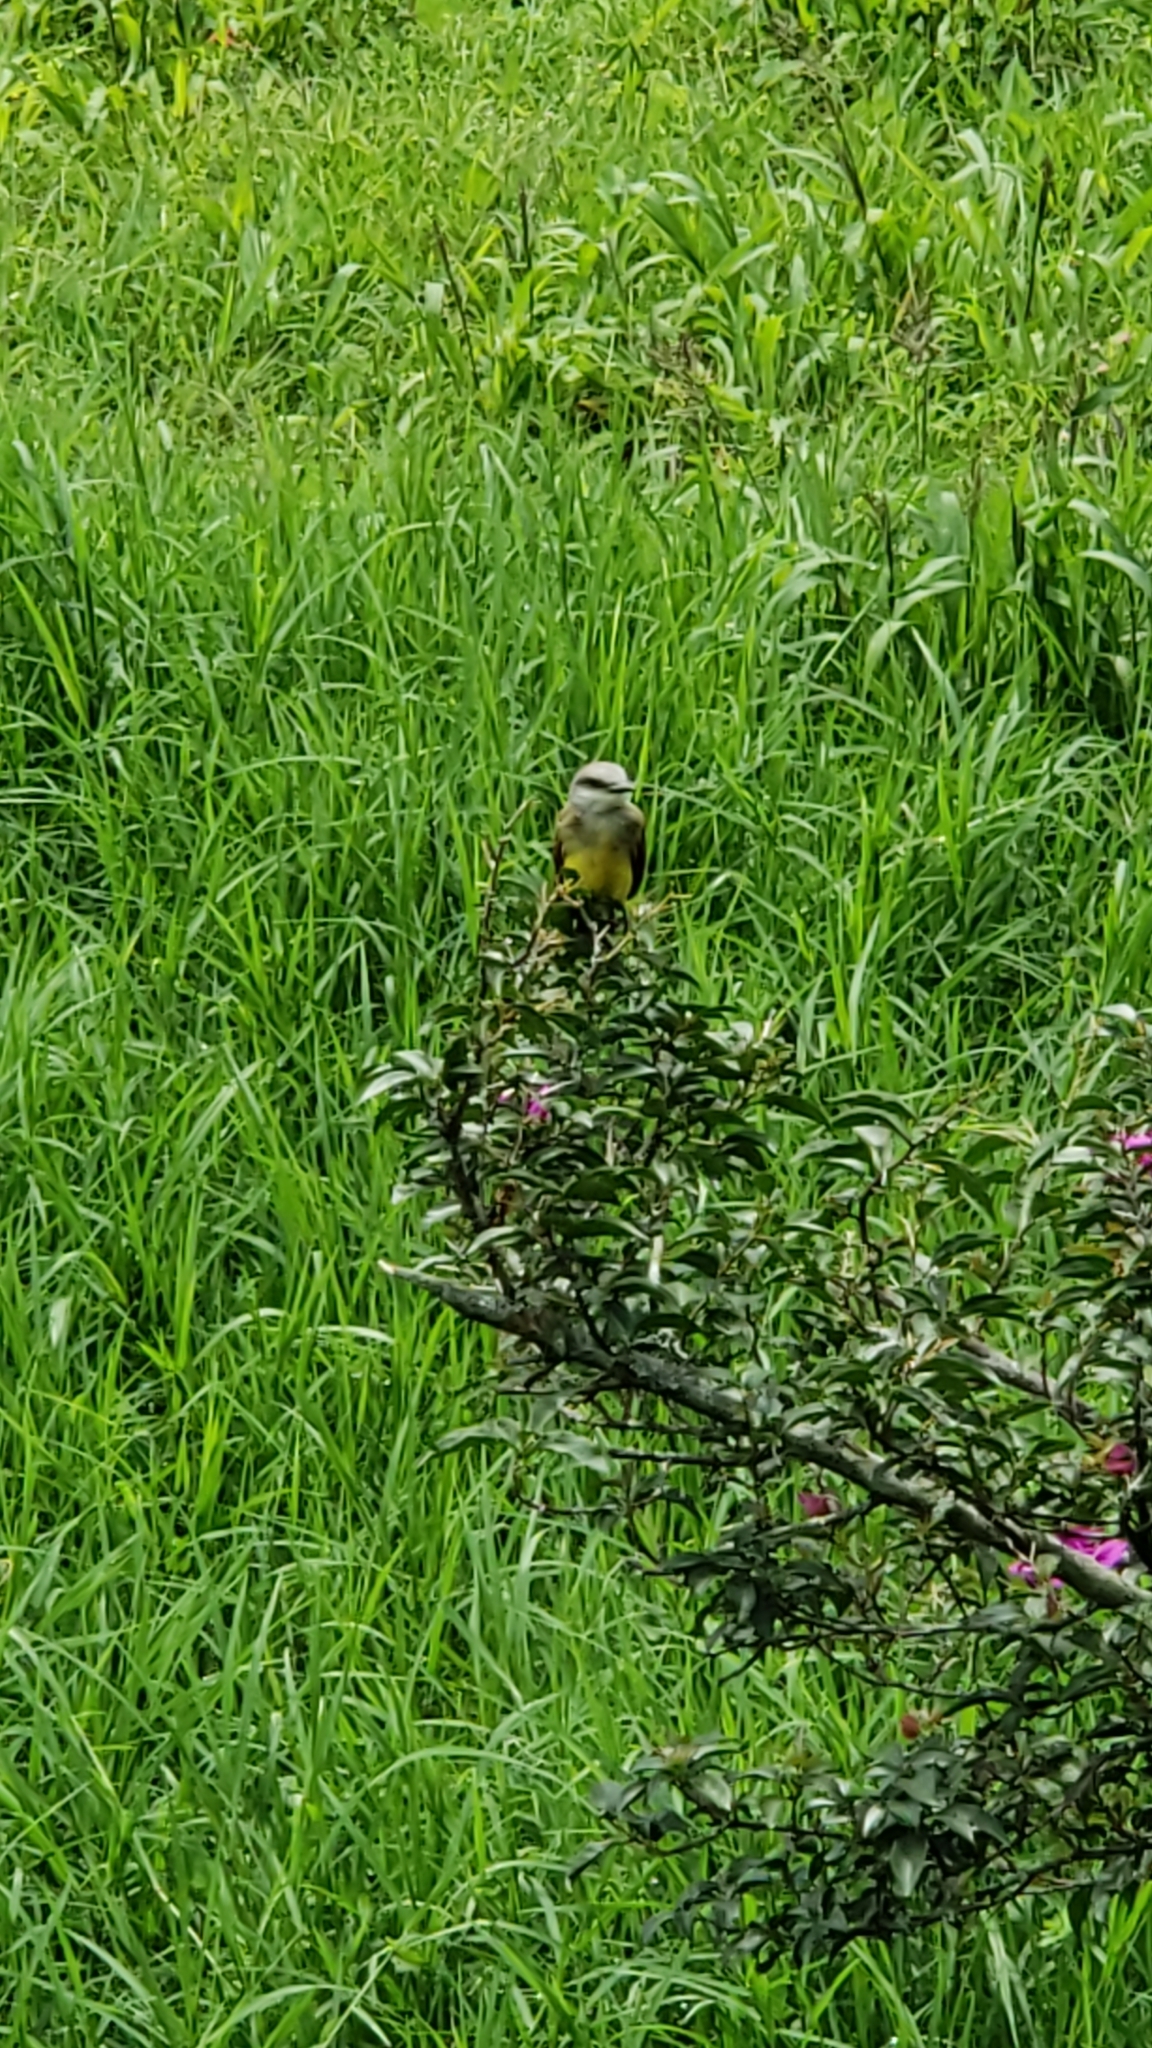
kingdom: Animalia
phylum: Chordata
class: Aves
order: Passeriformes
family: Tyrannidae
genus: Tyrannus
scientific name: Tyrannus melancholicus
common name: Tropical kingbird
